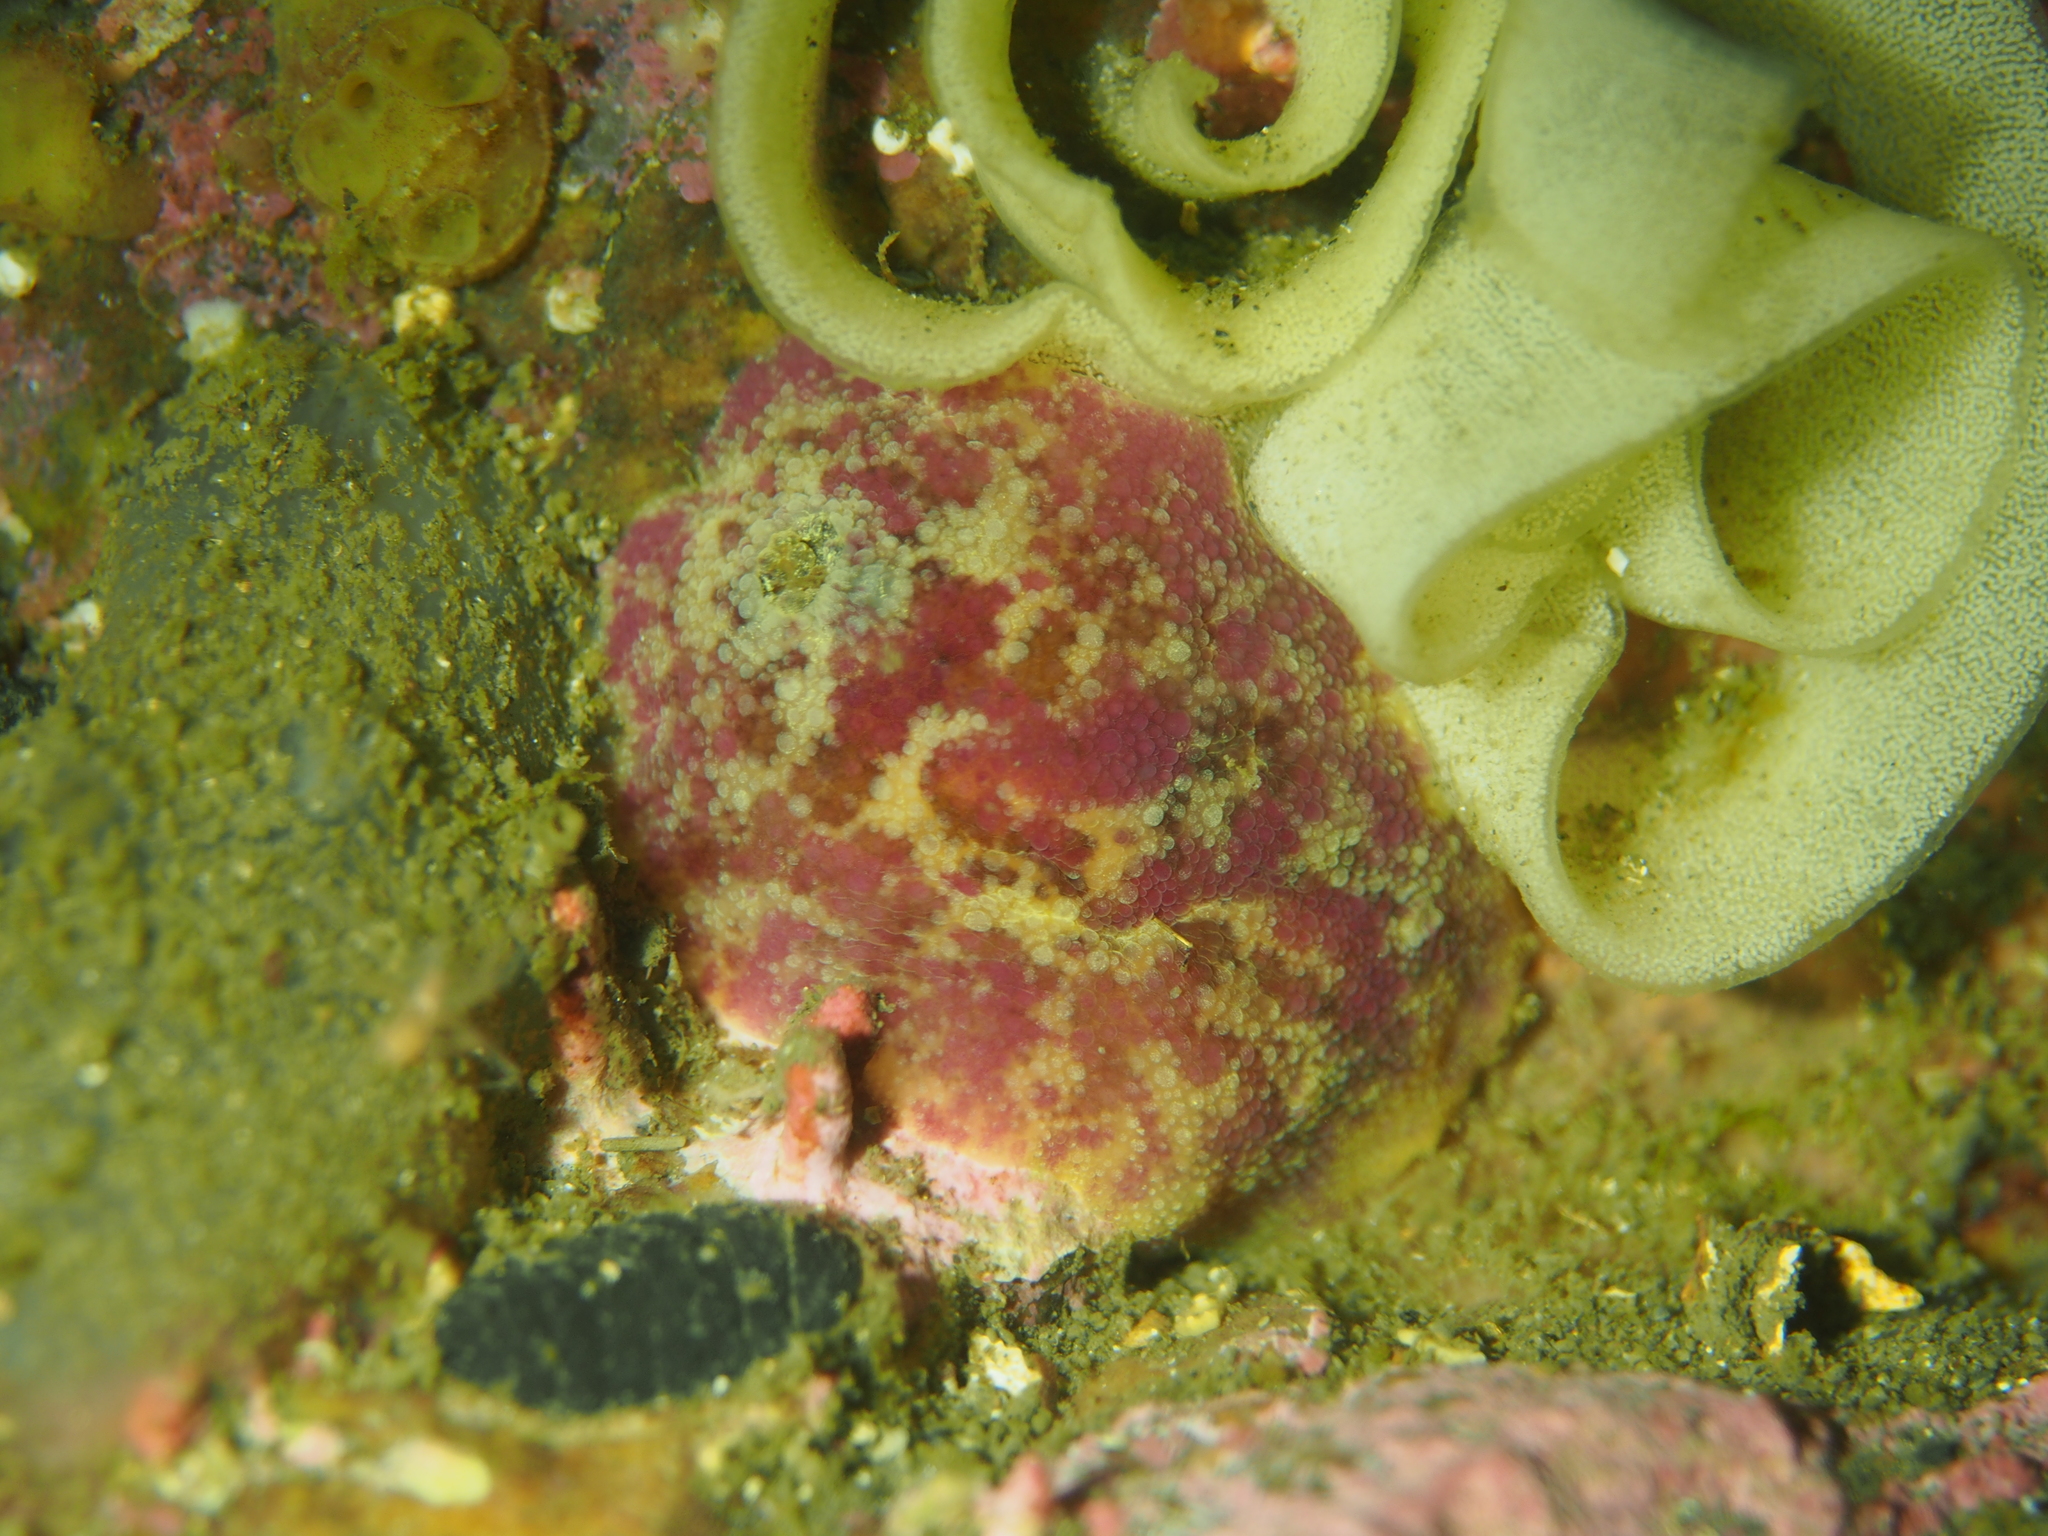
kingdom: Animalia
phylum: Mollusca
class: Gastropoda
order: Nudibranchia
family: Dorididae
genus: Doris
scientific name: Doris pseudoargus
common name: Sea lemon
